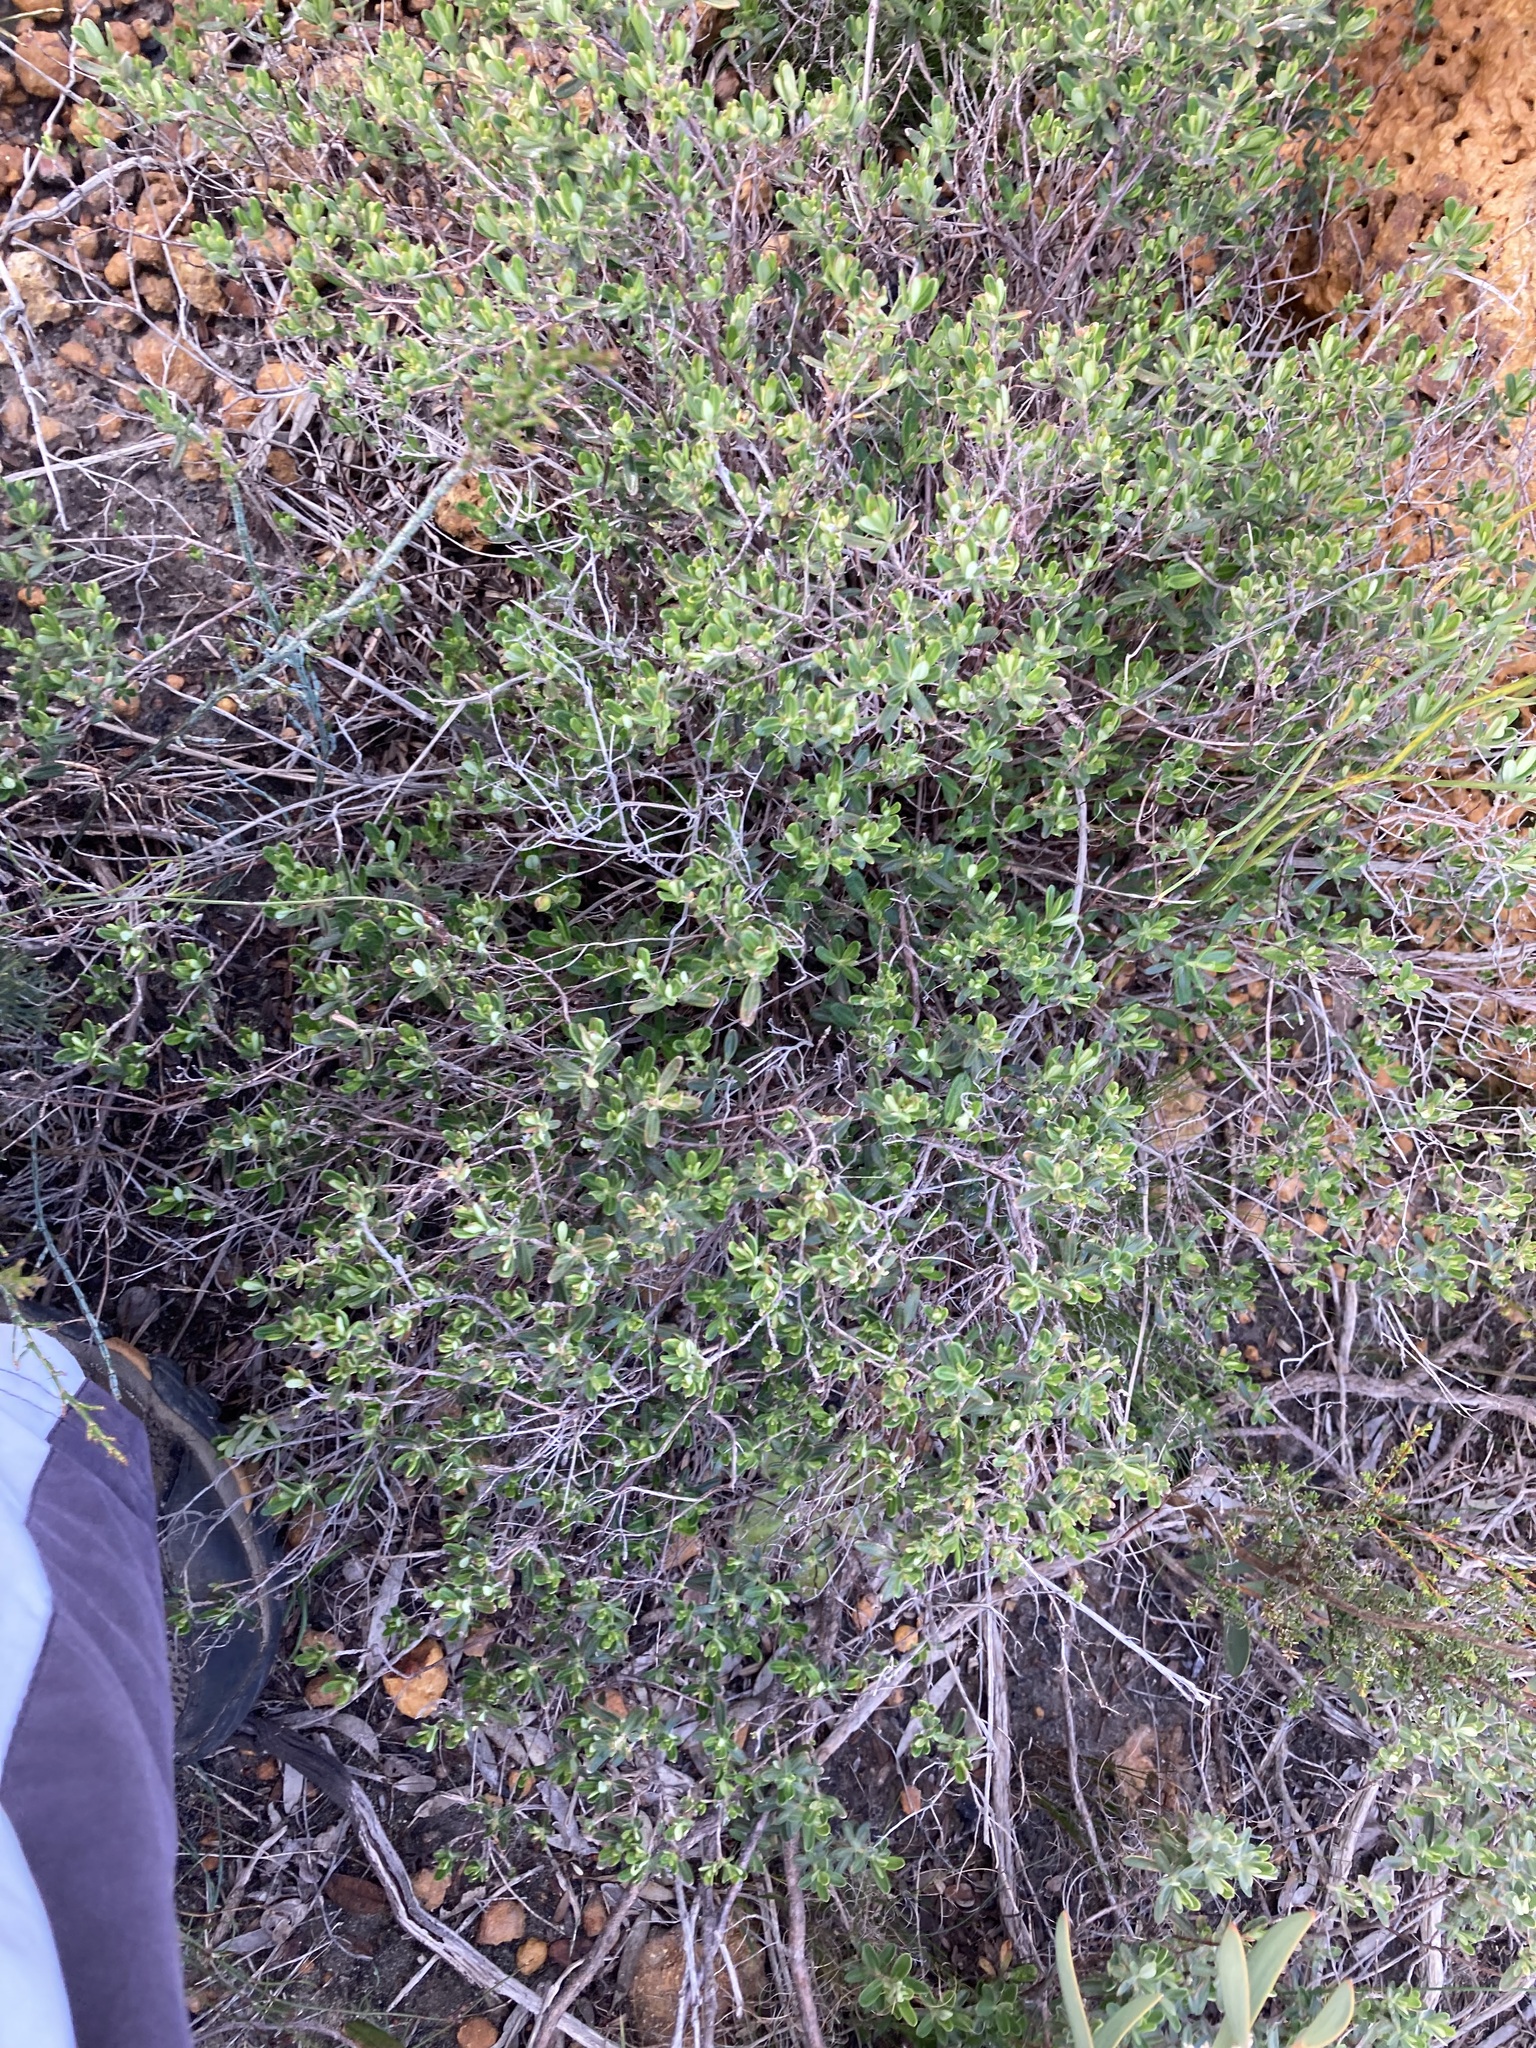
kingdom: Plantae
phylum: Tracheophyta
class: Magnoliopsida
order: Dilleniales
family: Dilleniaceae
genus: Hibbertia
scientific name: Hibbertia hypericoides
